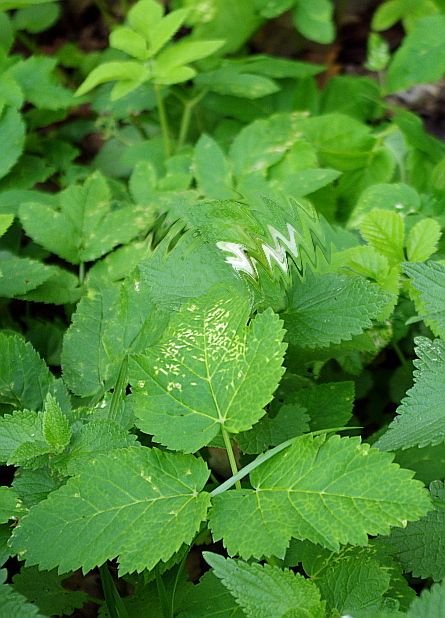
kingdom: Plantae
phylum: Tracheophyta
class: Magnoliopsida
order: Apiales
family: Apiaceae
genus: Aegopodium
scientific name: Aegopodium podagraria
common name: Ground-elder
